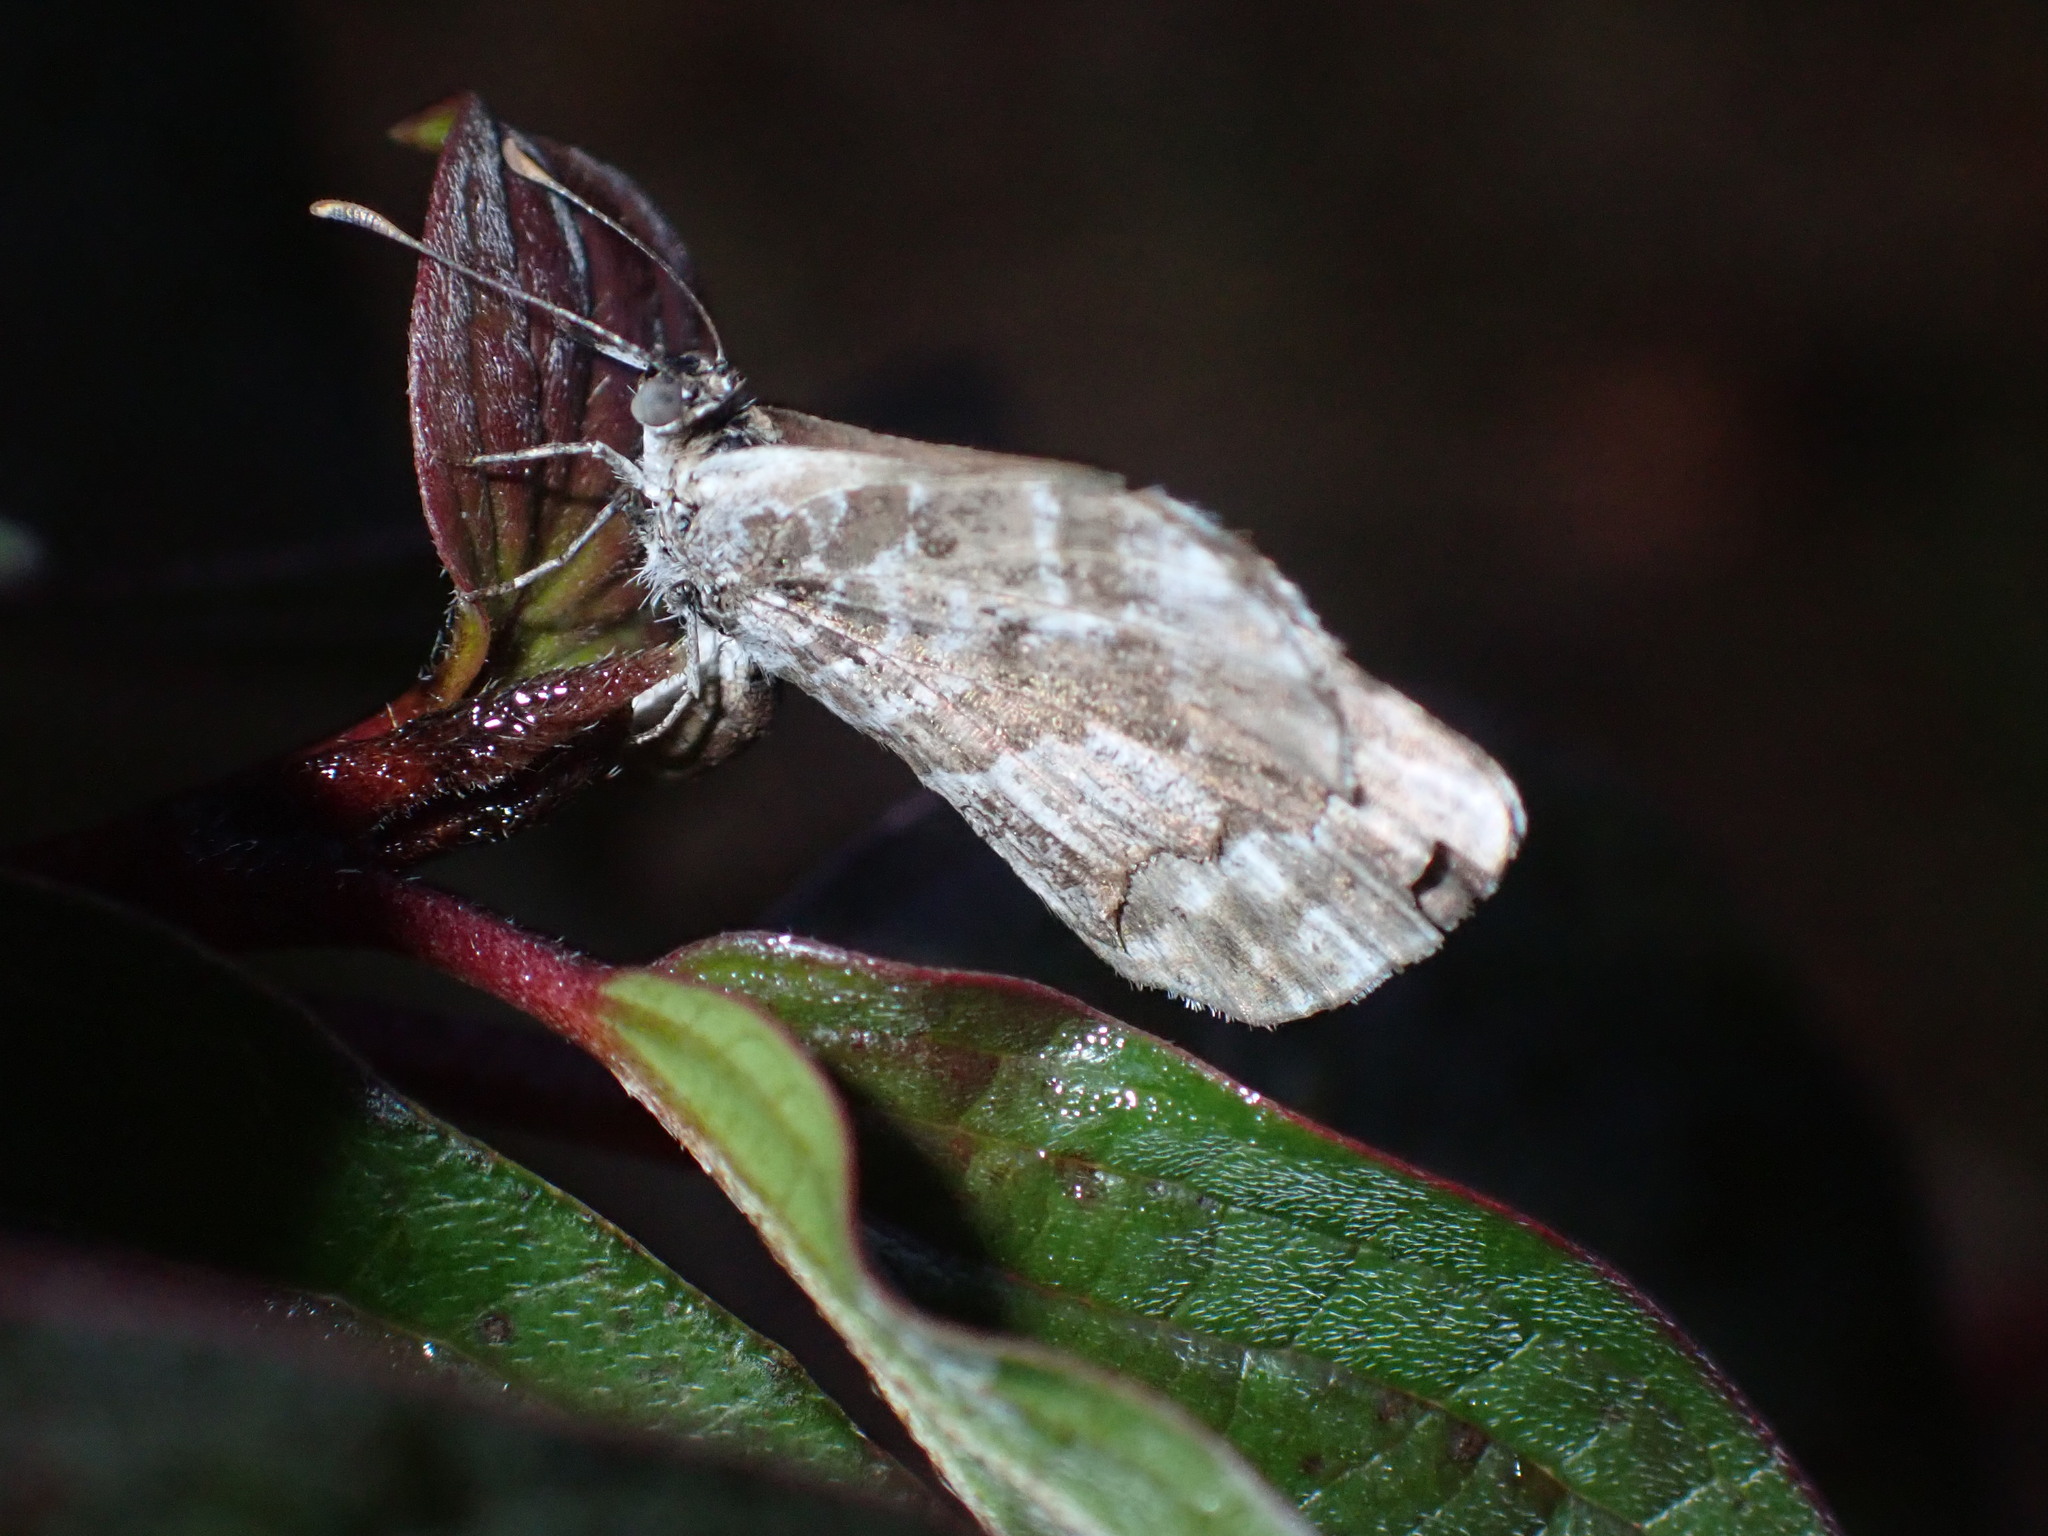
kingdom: Animalia
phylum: Arthropoda
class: Insecta
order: Lepidoptera
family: Lycaenidae
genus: Cacyreus
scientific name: Cacyreus marshalli
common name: Geranium bronze
